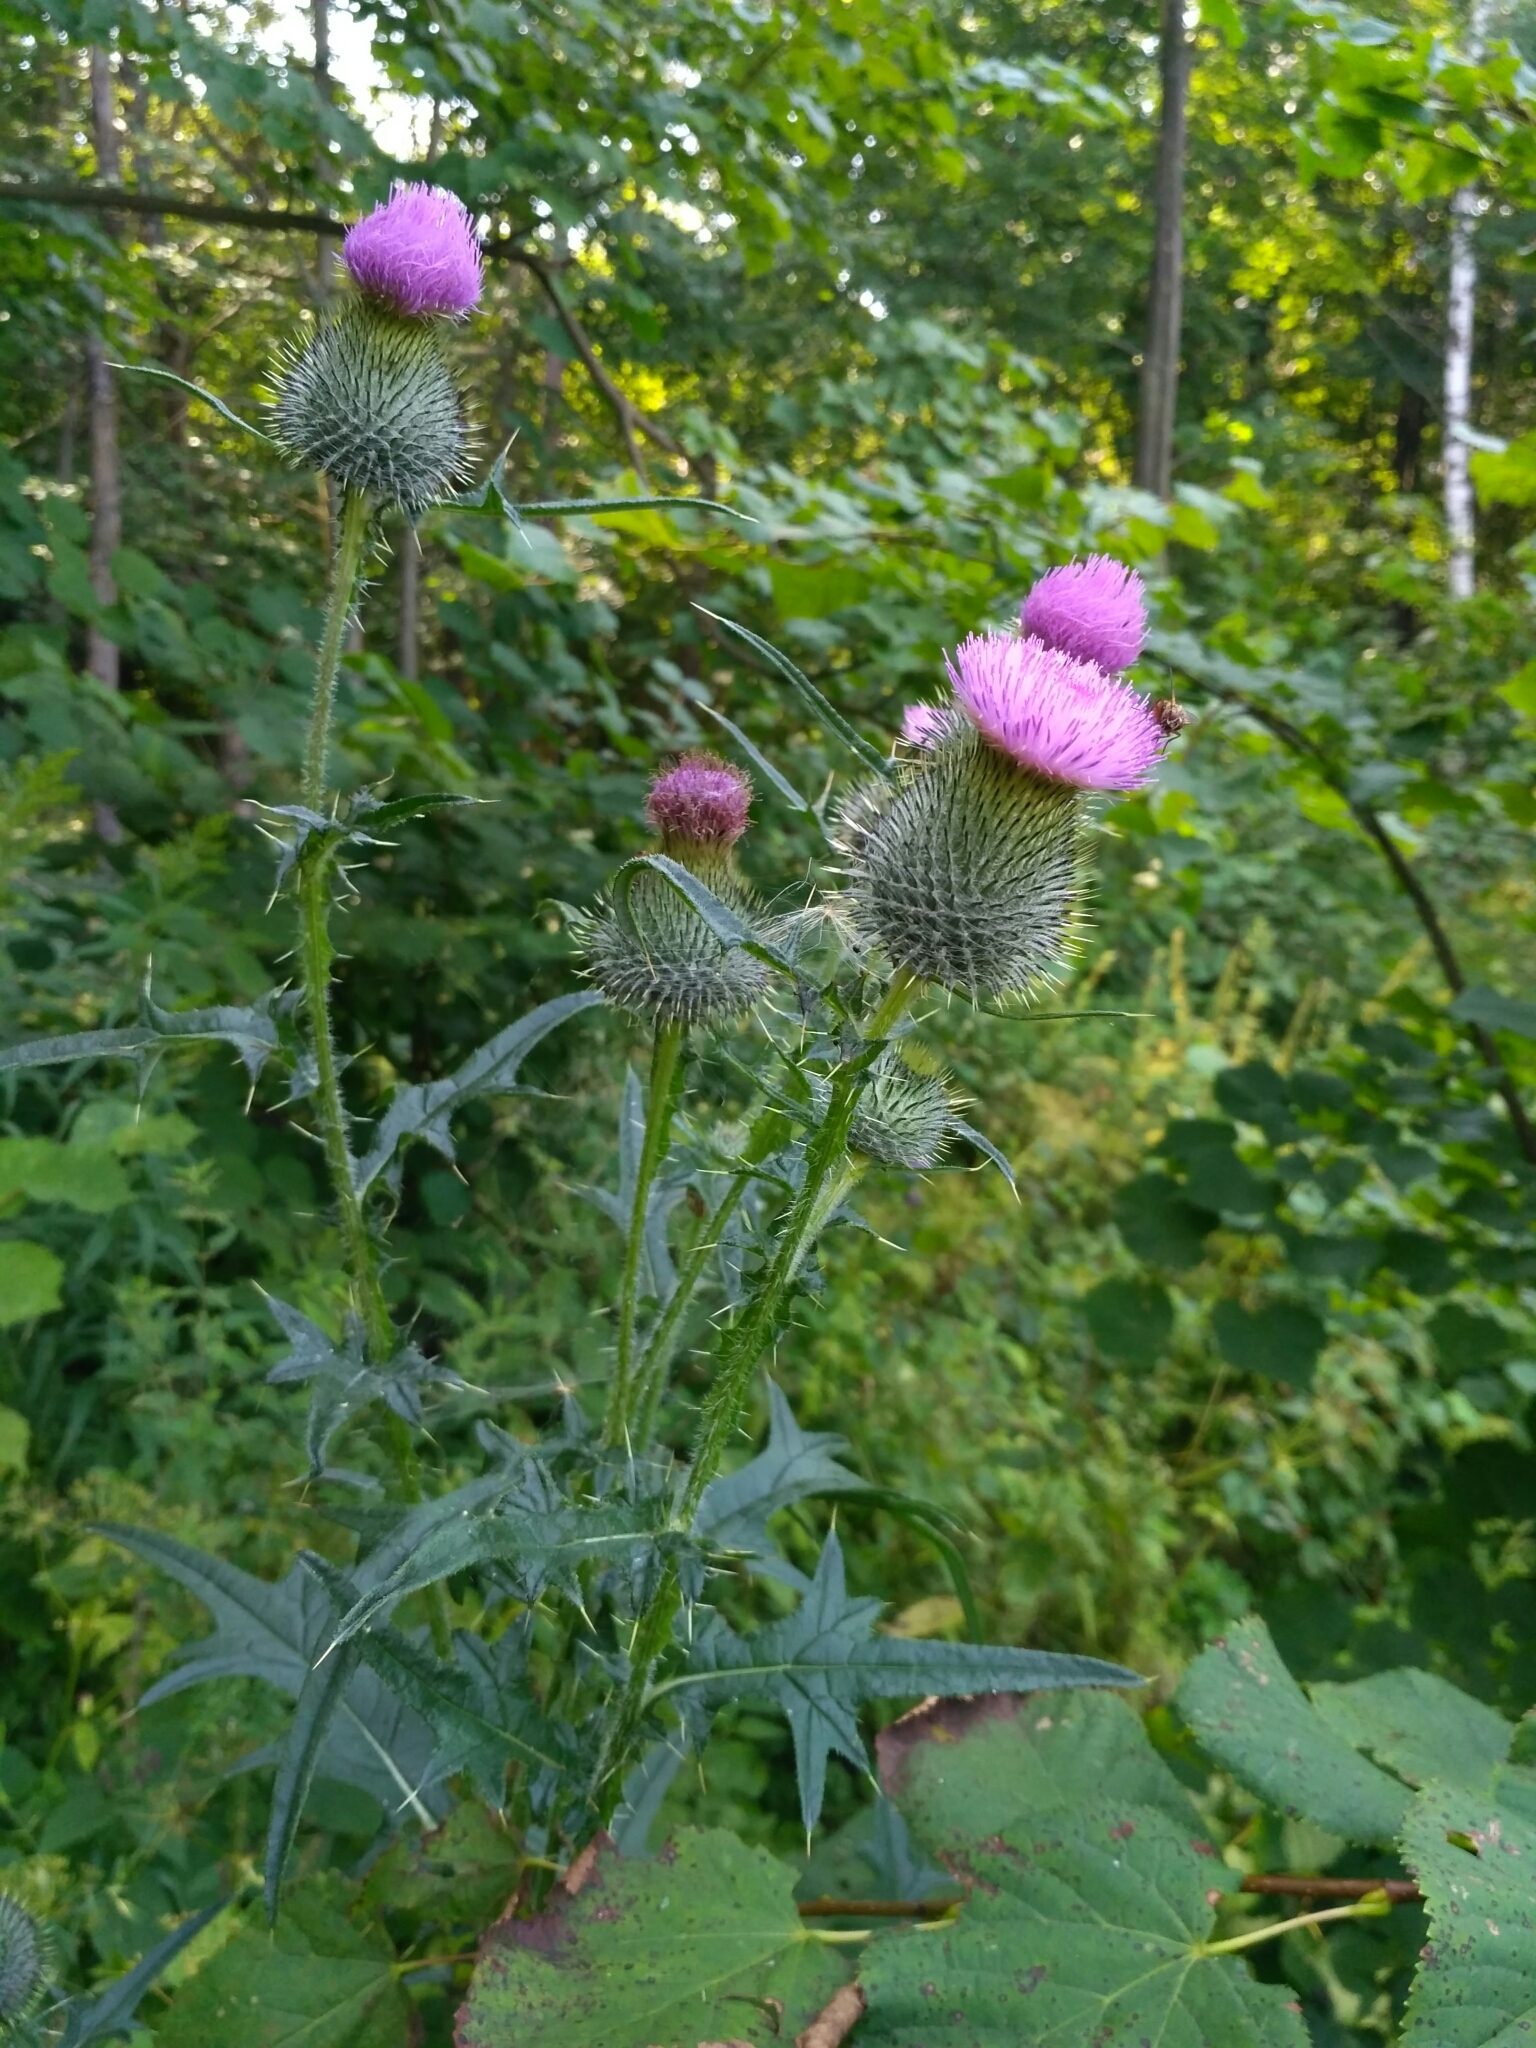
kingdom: Plantae
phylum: Tracheophyta
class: Magnoliopsida
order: Asterales
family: Asteraceae
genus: Cirsium
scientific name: Cirsium vulgare
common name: Bull thistle
